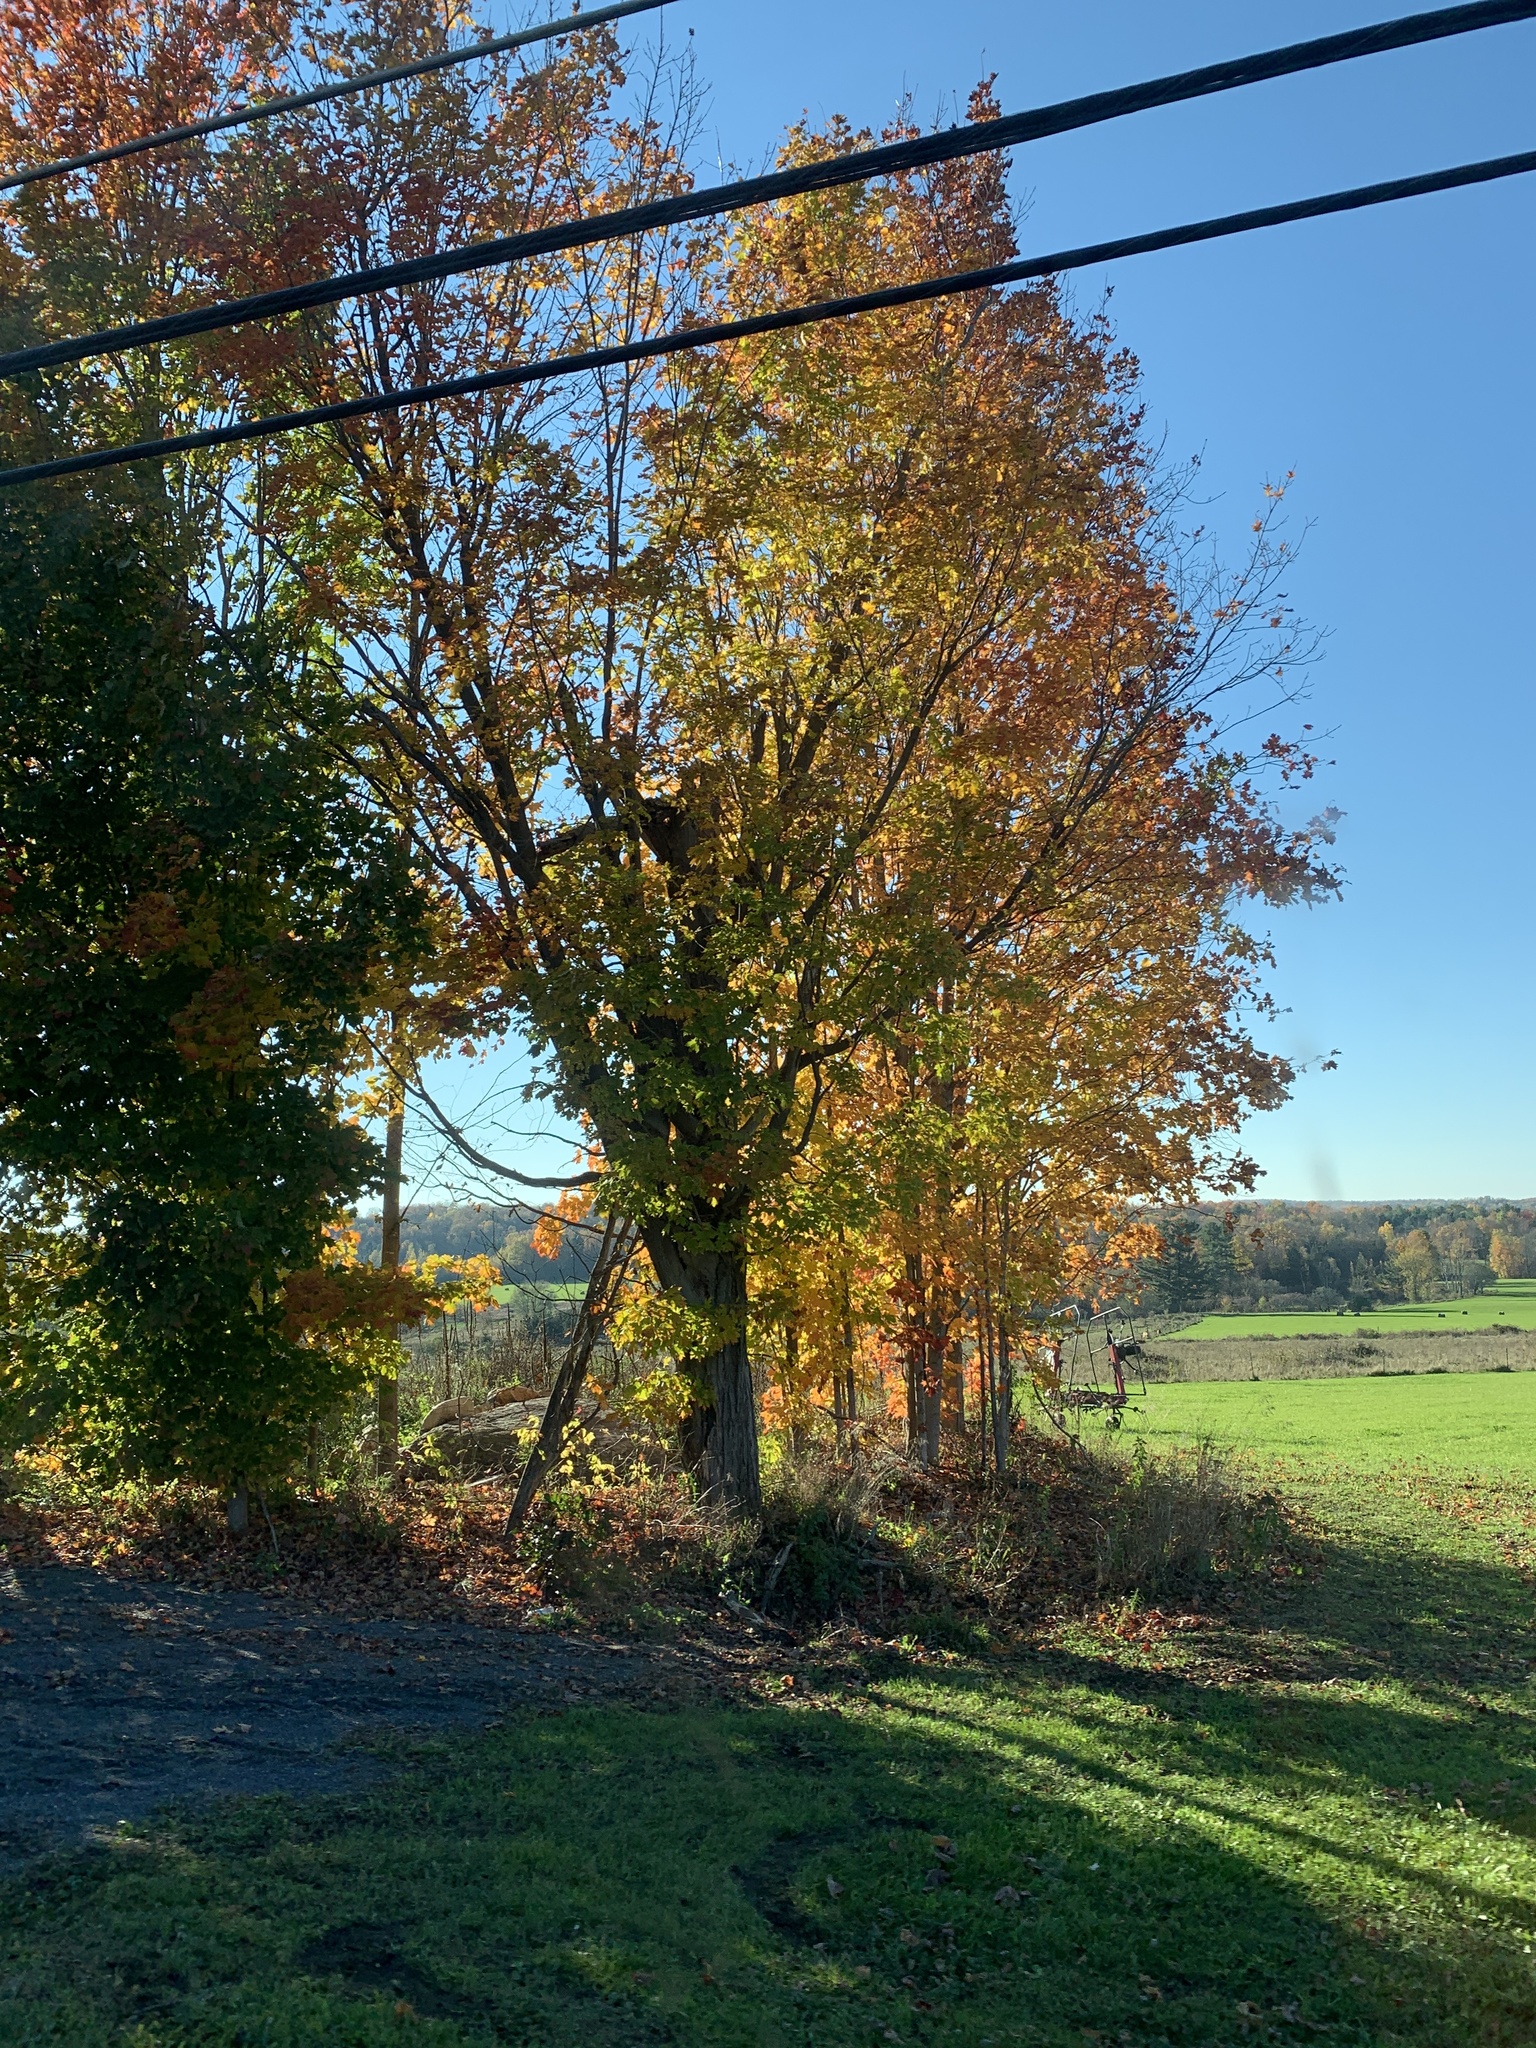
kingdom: Plantae
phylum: Tracheophyta
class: Magnoliopsida
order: Sapindales
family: Sapindaceae
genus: Acer
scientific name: Acer saccharum
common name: Sugar maple
